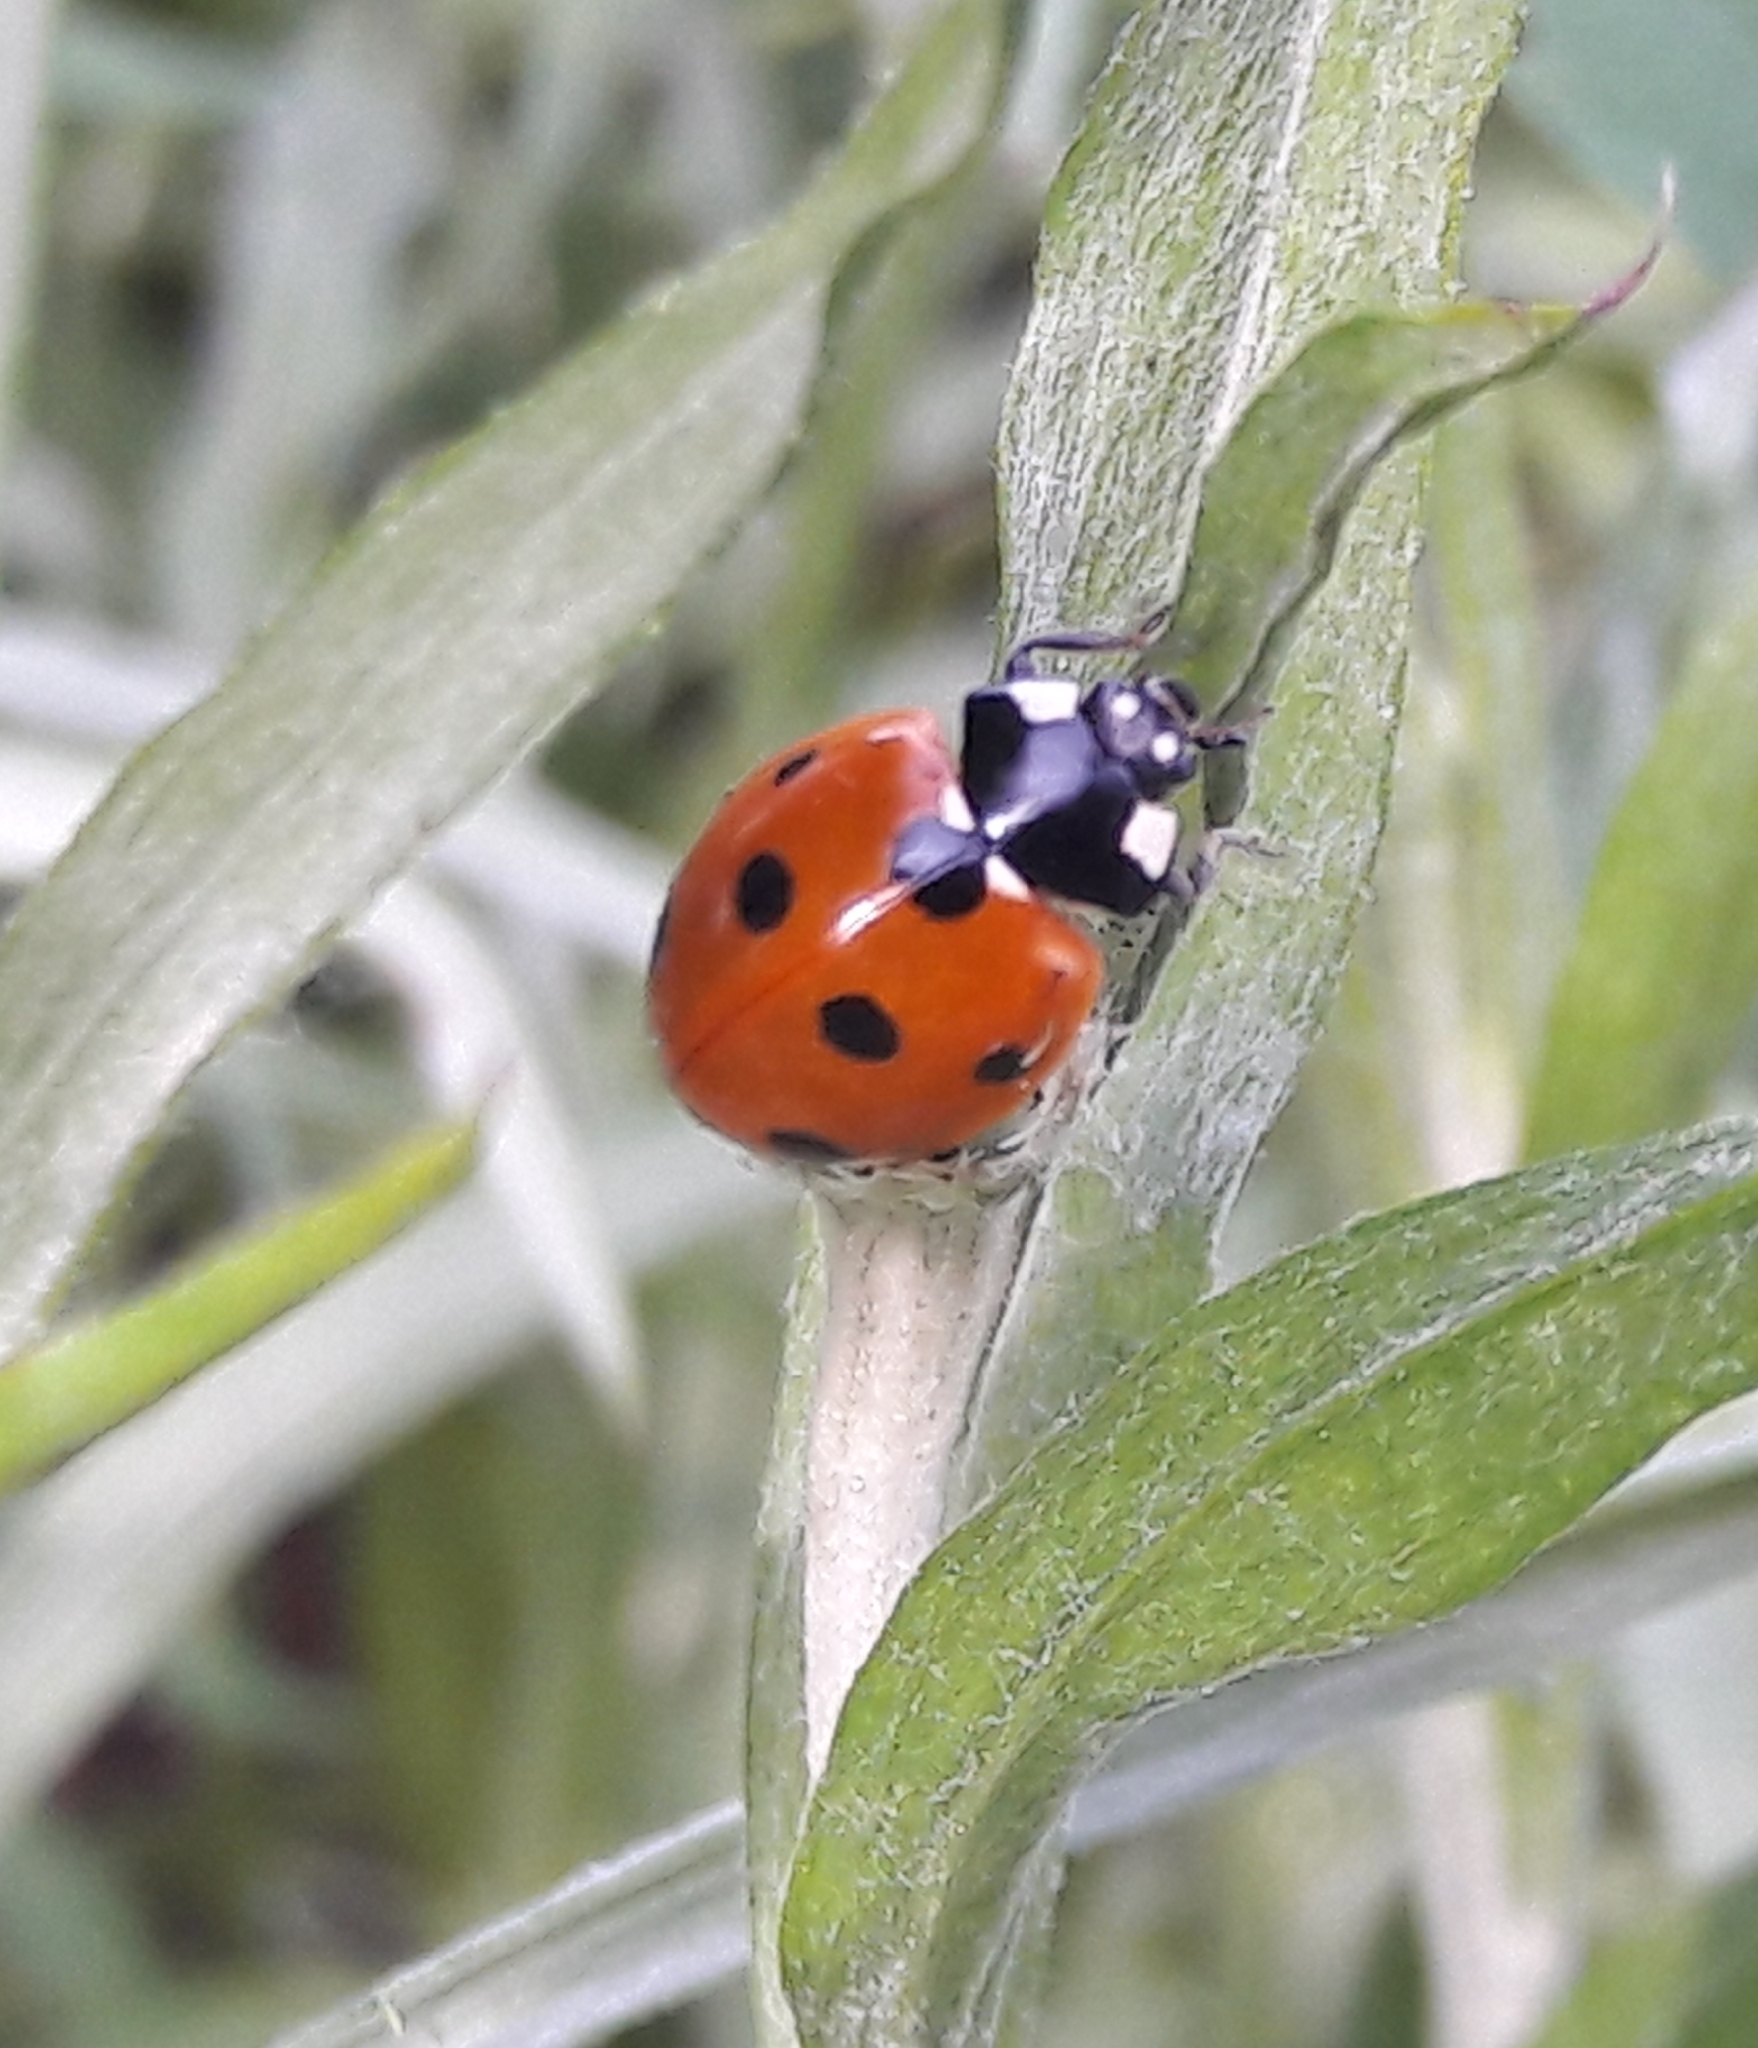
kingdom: Animalia
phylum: Arthropoda
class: Insecta
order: Coleoptera
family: Coccinellidae
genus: Coccinella
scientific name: Coccinella septempunctata
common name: Sevenspotted lady beetle
